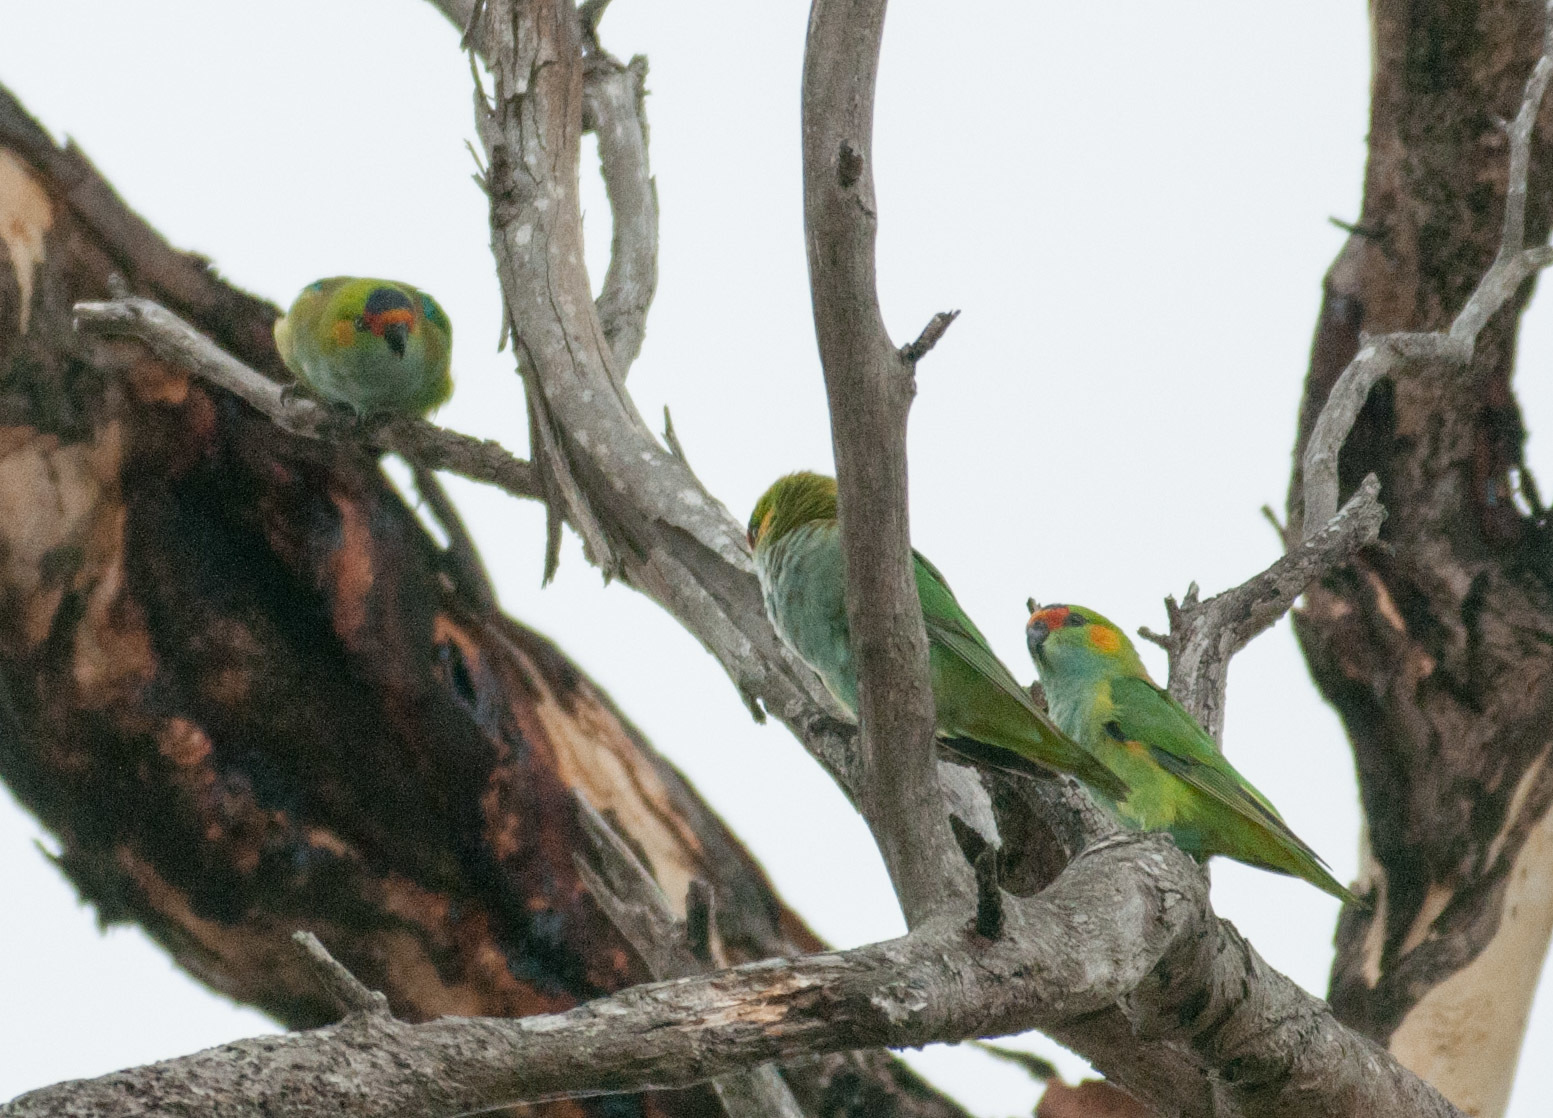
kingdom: Animalia
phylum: Chordata
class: Aves
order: Psittaciformes
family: Psittaculidae
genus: Parvipsitta
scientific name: Parvipsitta porphyrocephala
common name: Purple-crowned lorikeet
